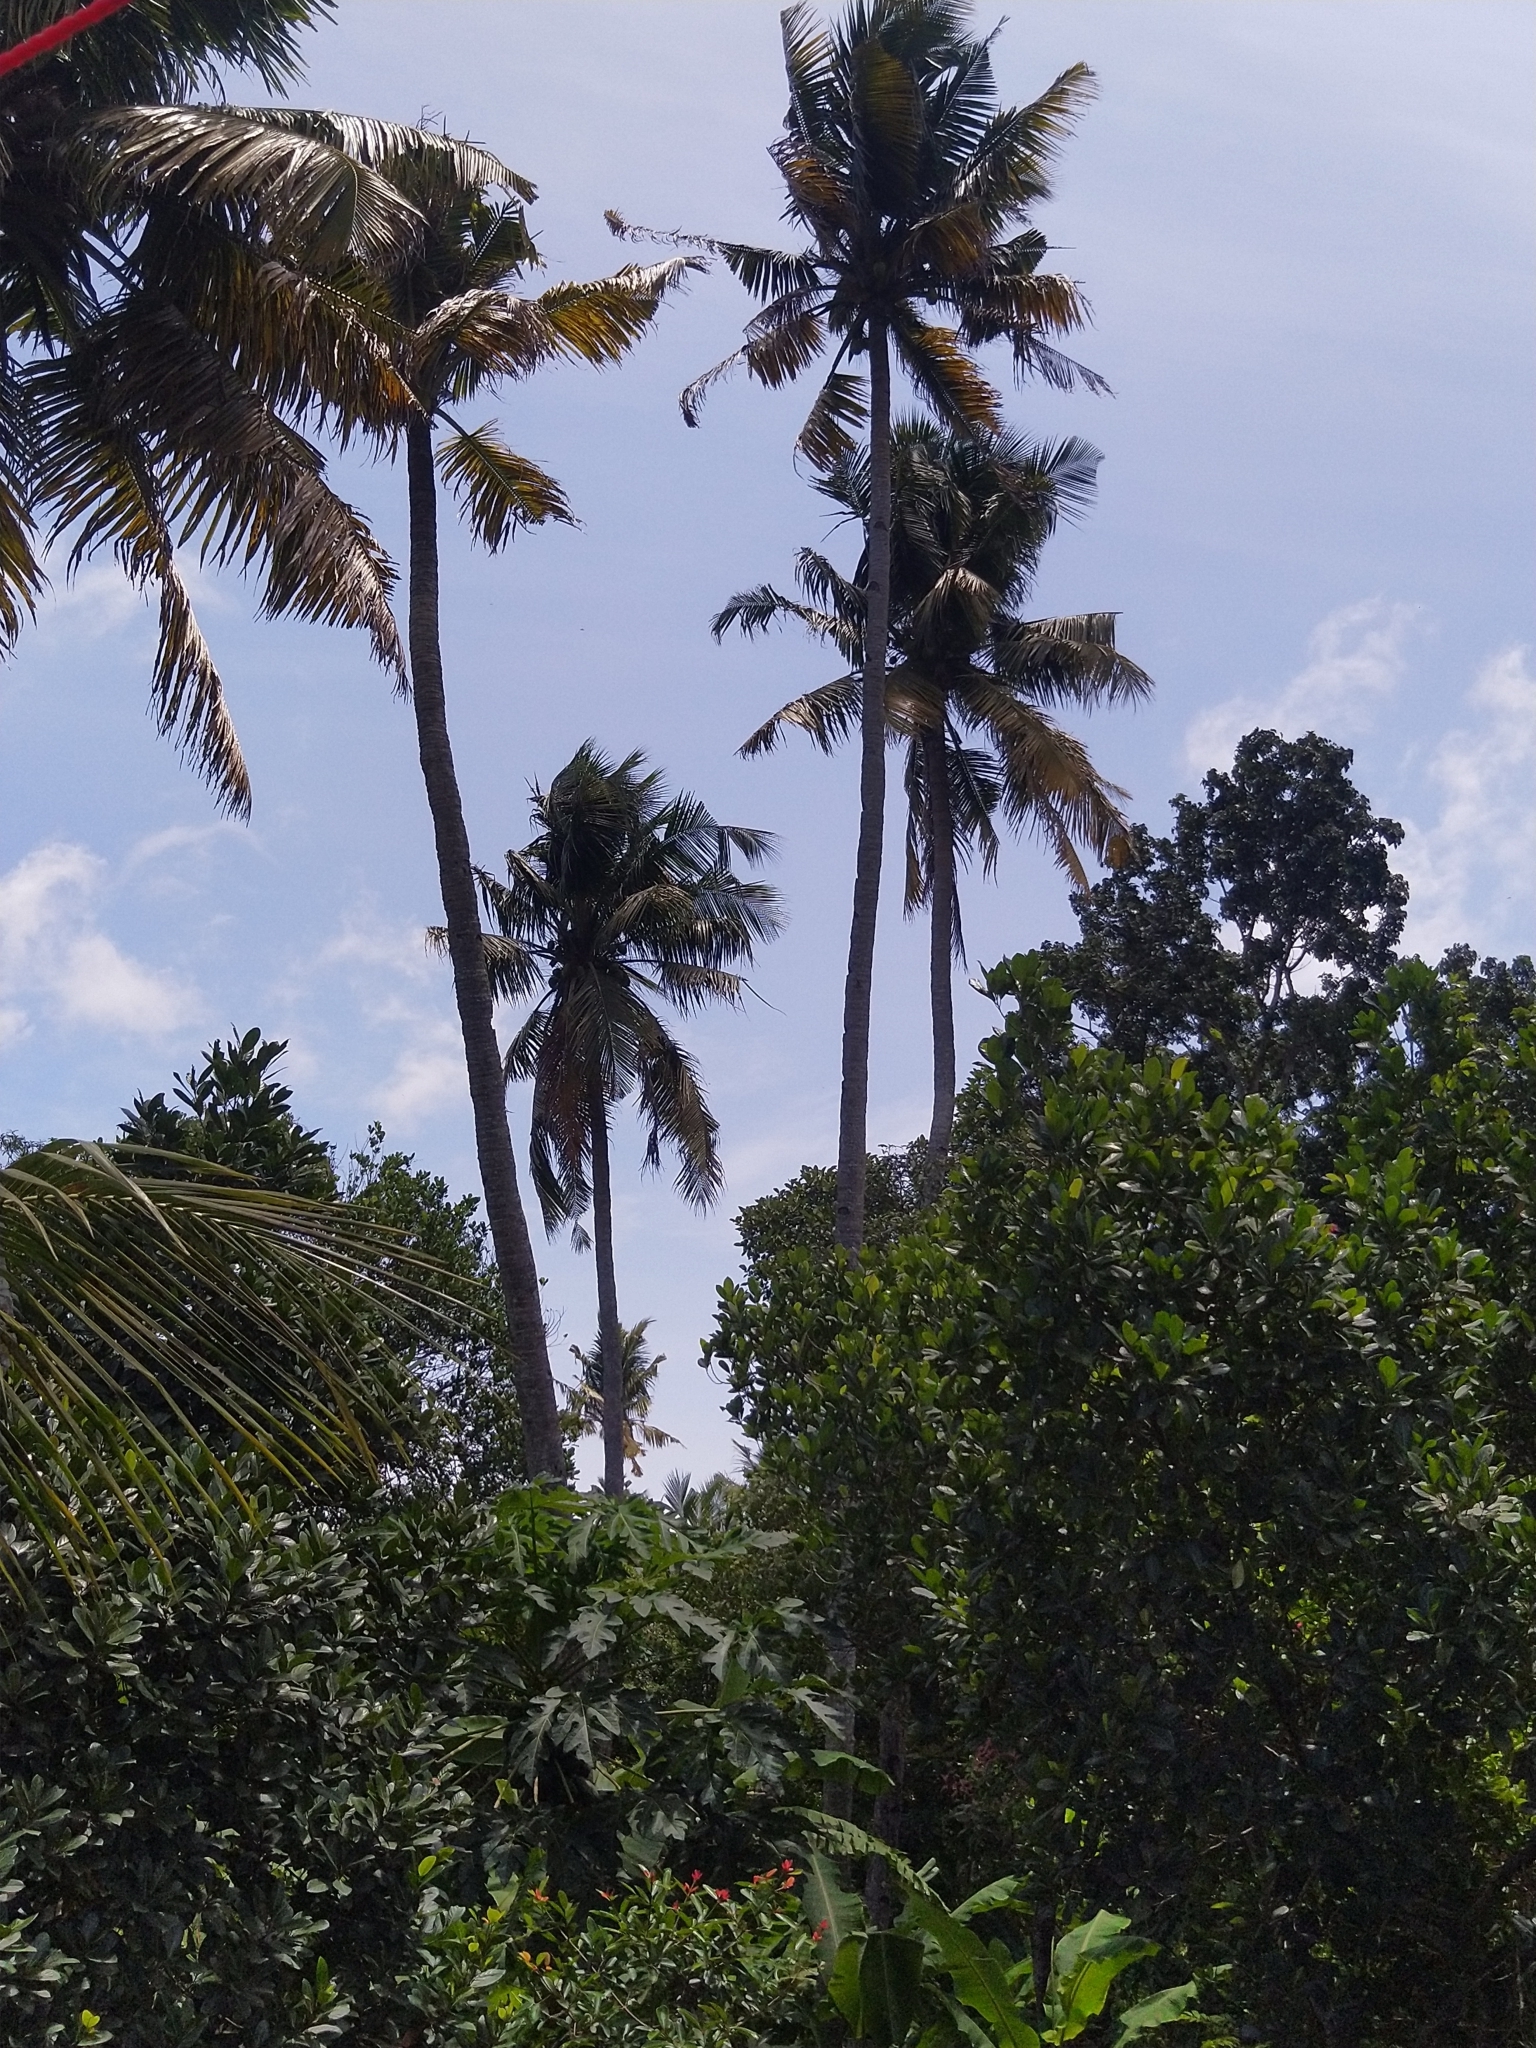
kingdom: Plantae
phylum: Tracheophyta
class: Liliopsida
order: Arecales
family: Arecaceae
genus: Cocos
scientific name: Cocos nucifera
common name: Coconut palm
